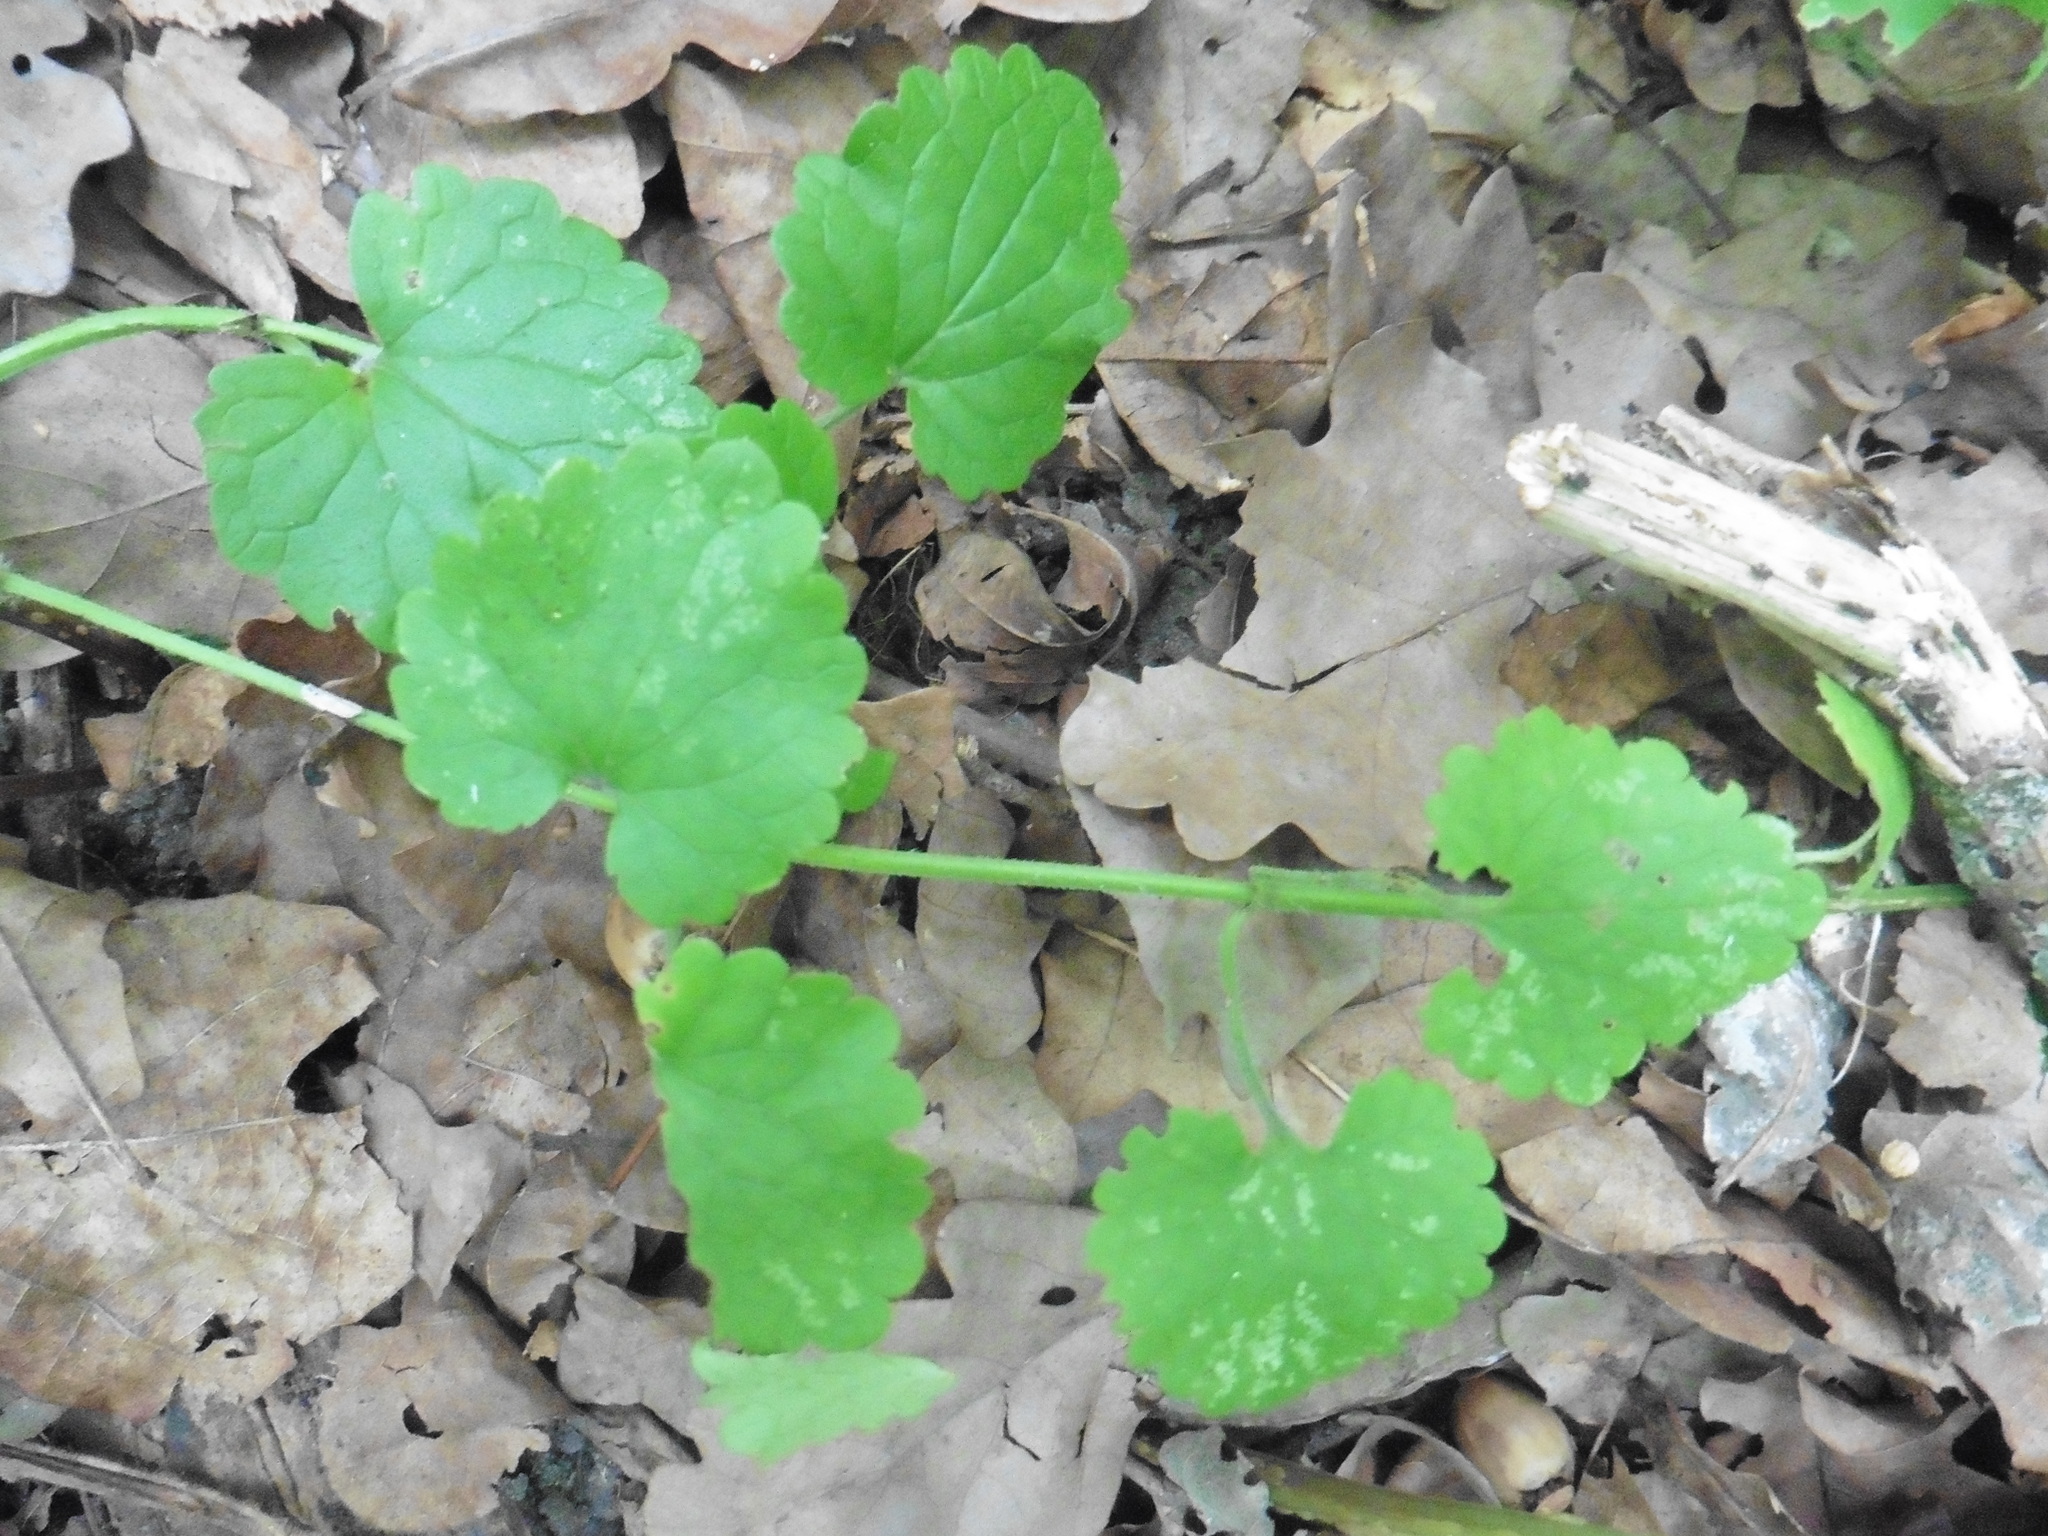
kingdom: Plantae
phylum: Tracheophyta
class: Magnoliopsida
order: Lamiales
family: Lamiaceae
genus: Glechoma
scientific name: Glechoma hederacea
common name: Ground ivy
